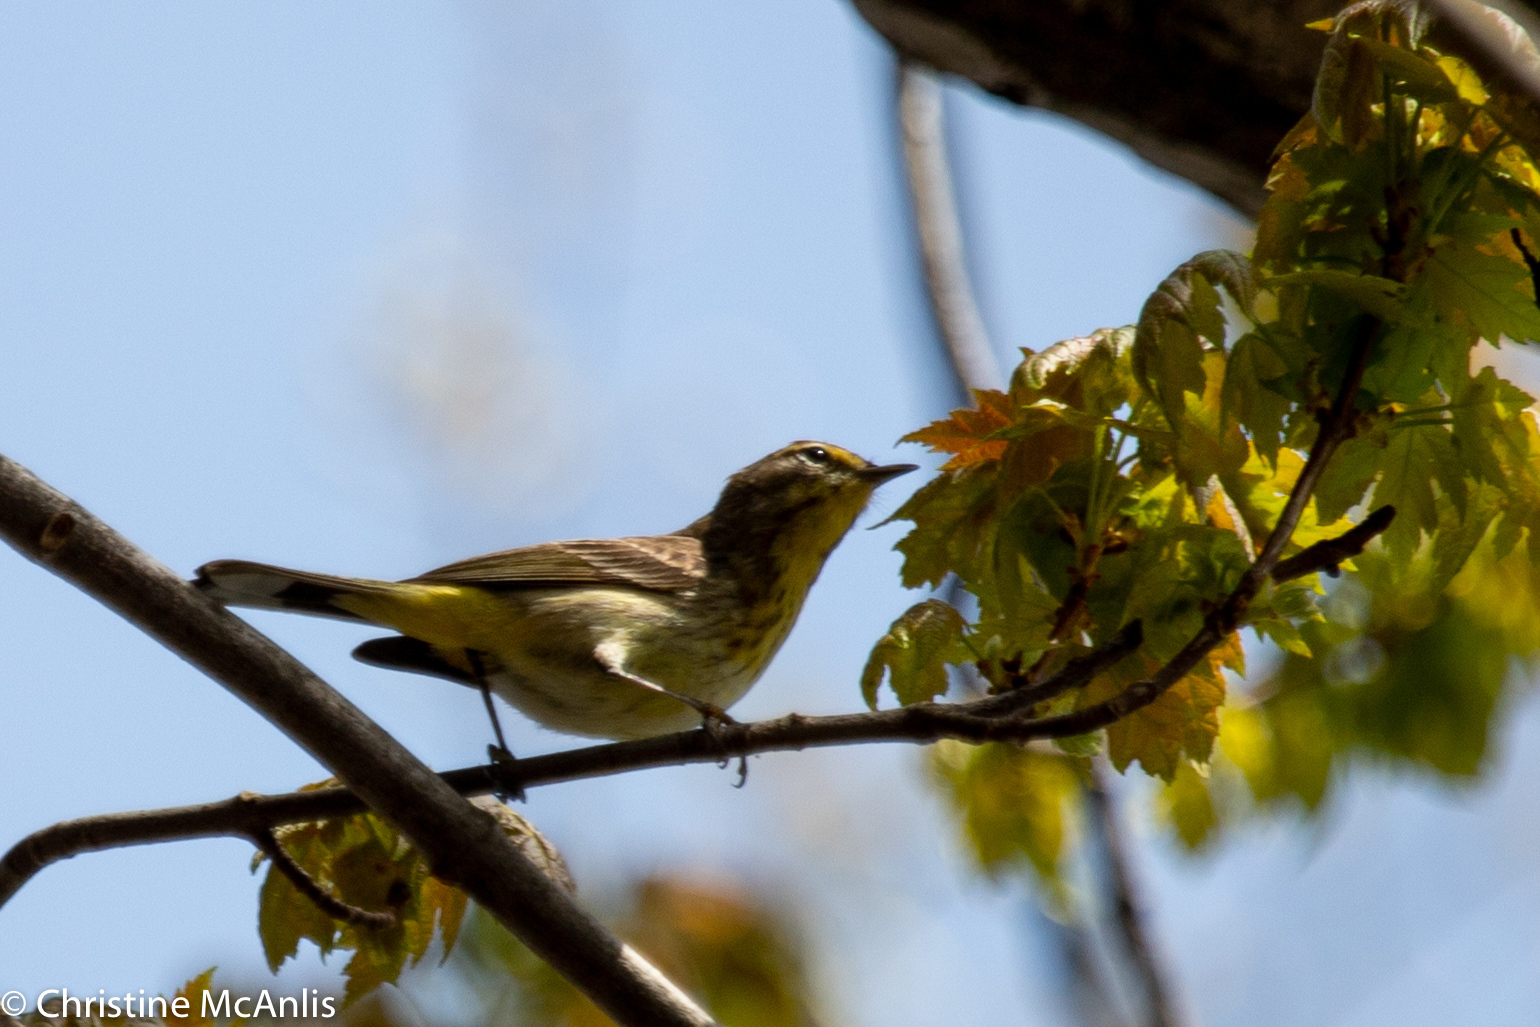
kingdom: Animalia
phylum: Chordata
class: Aves
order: Passeriformes
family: Parulidae
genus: Setophaga
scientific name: Setophaga palmarum
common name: Palm warbler
